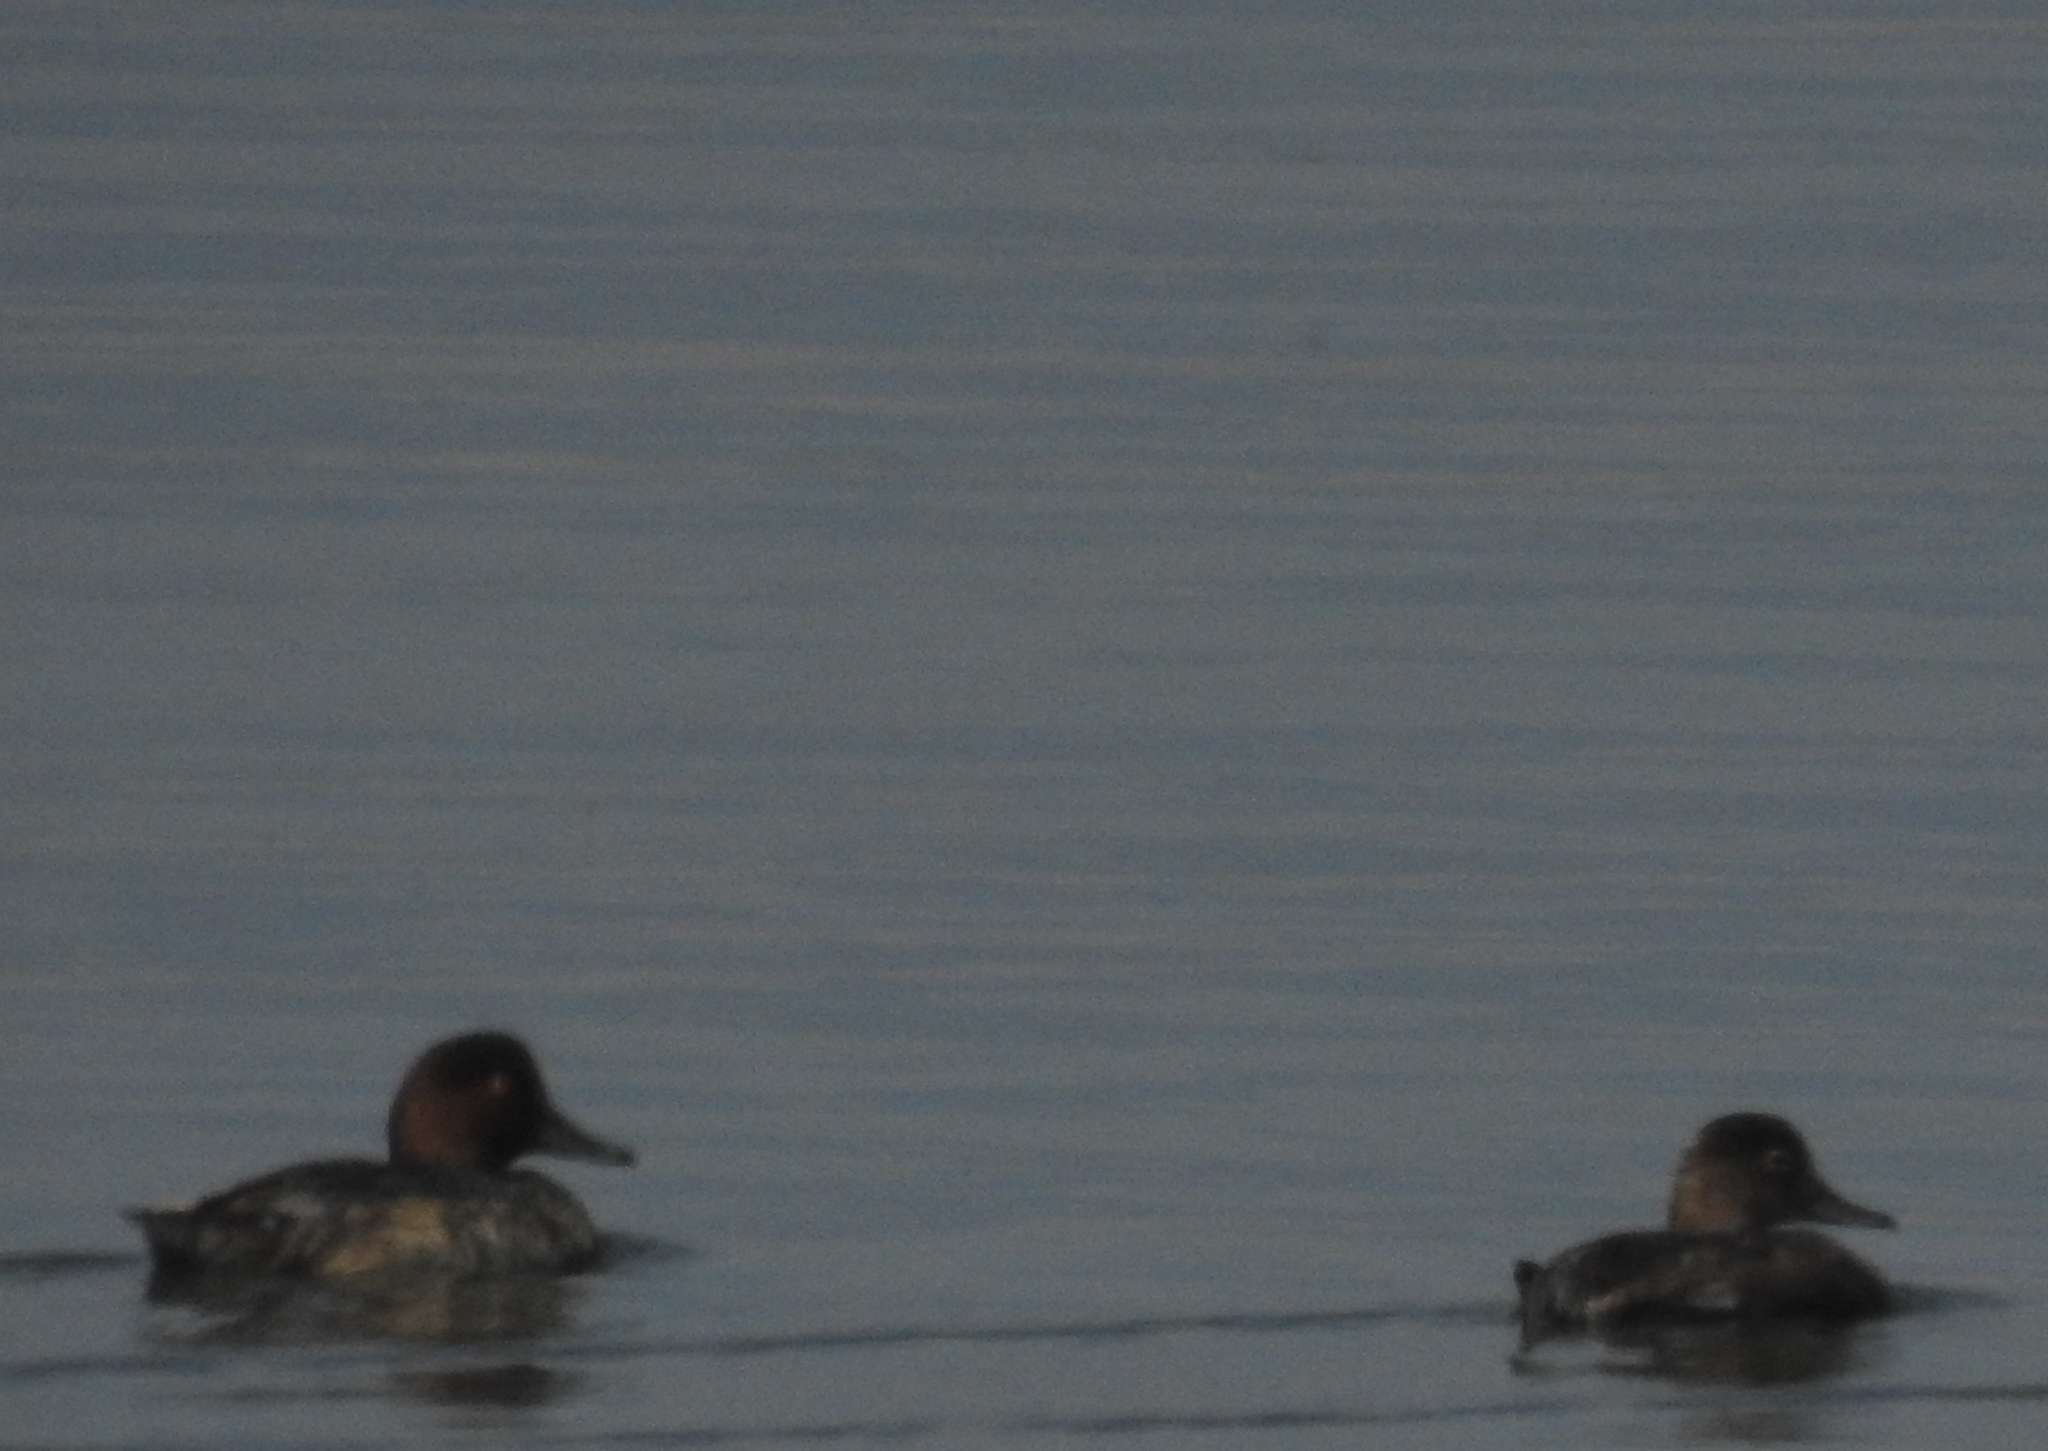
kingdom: Animalia
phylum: Chordata
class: Aves
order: Anseriformes
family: Anatidae
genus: Aythya
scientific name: Aythya americana
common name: Redhead
